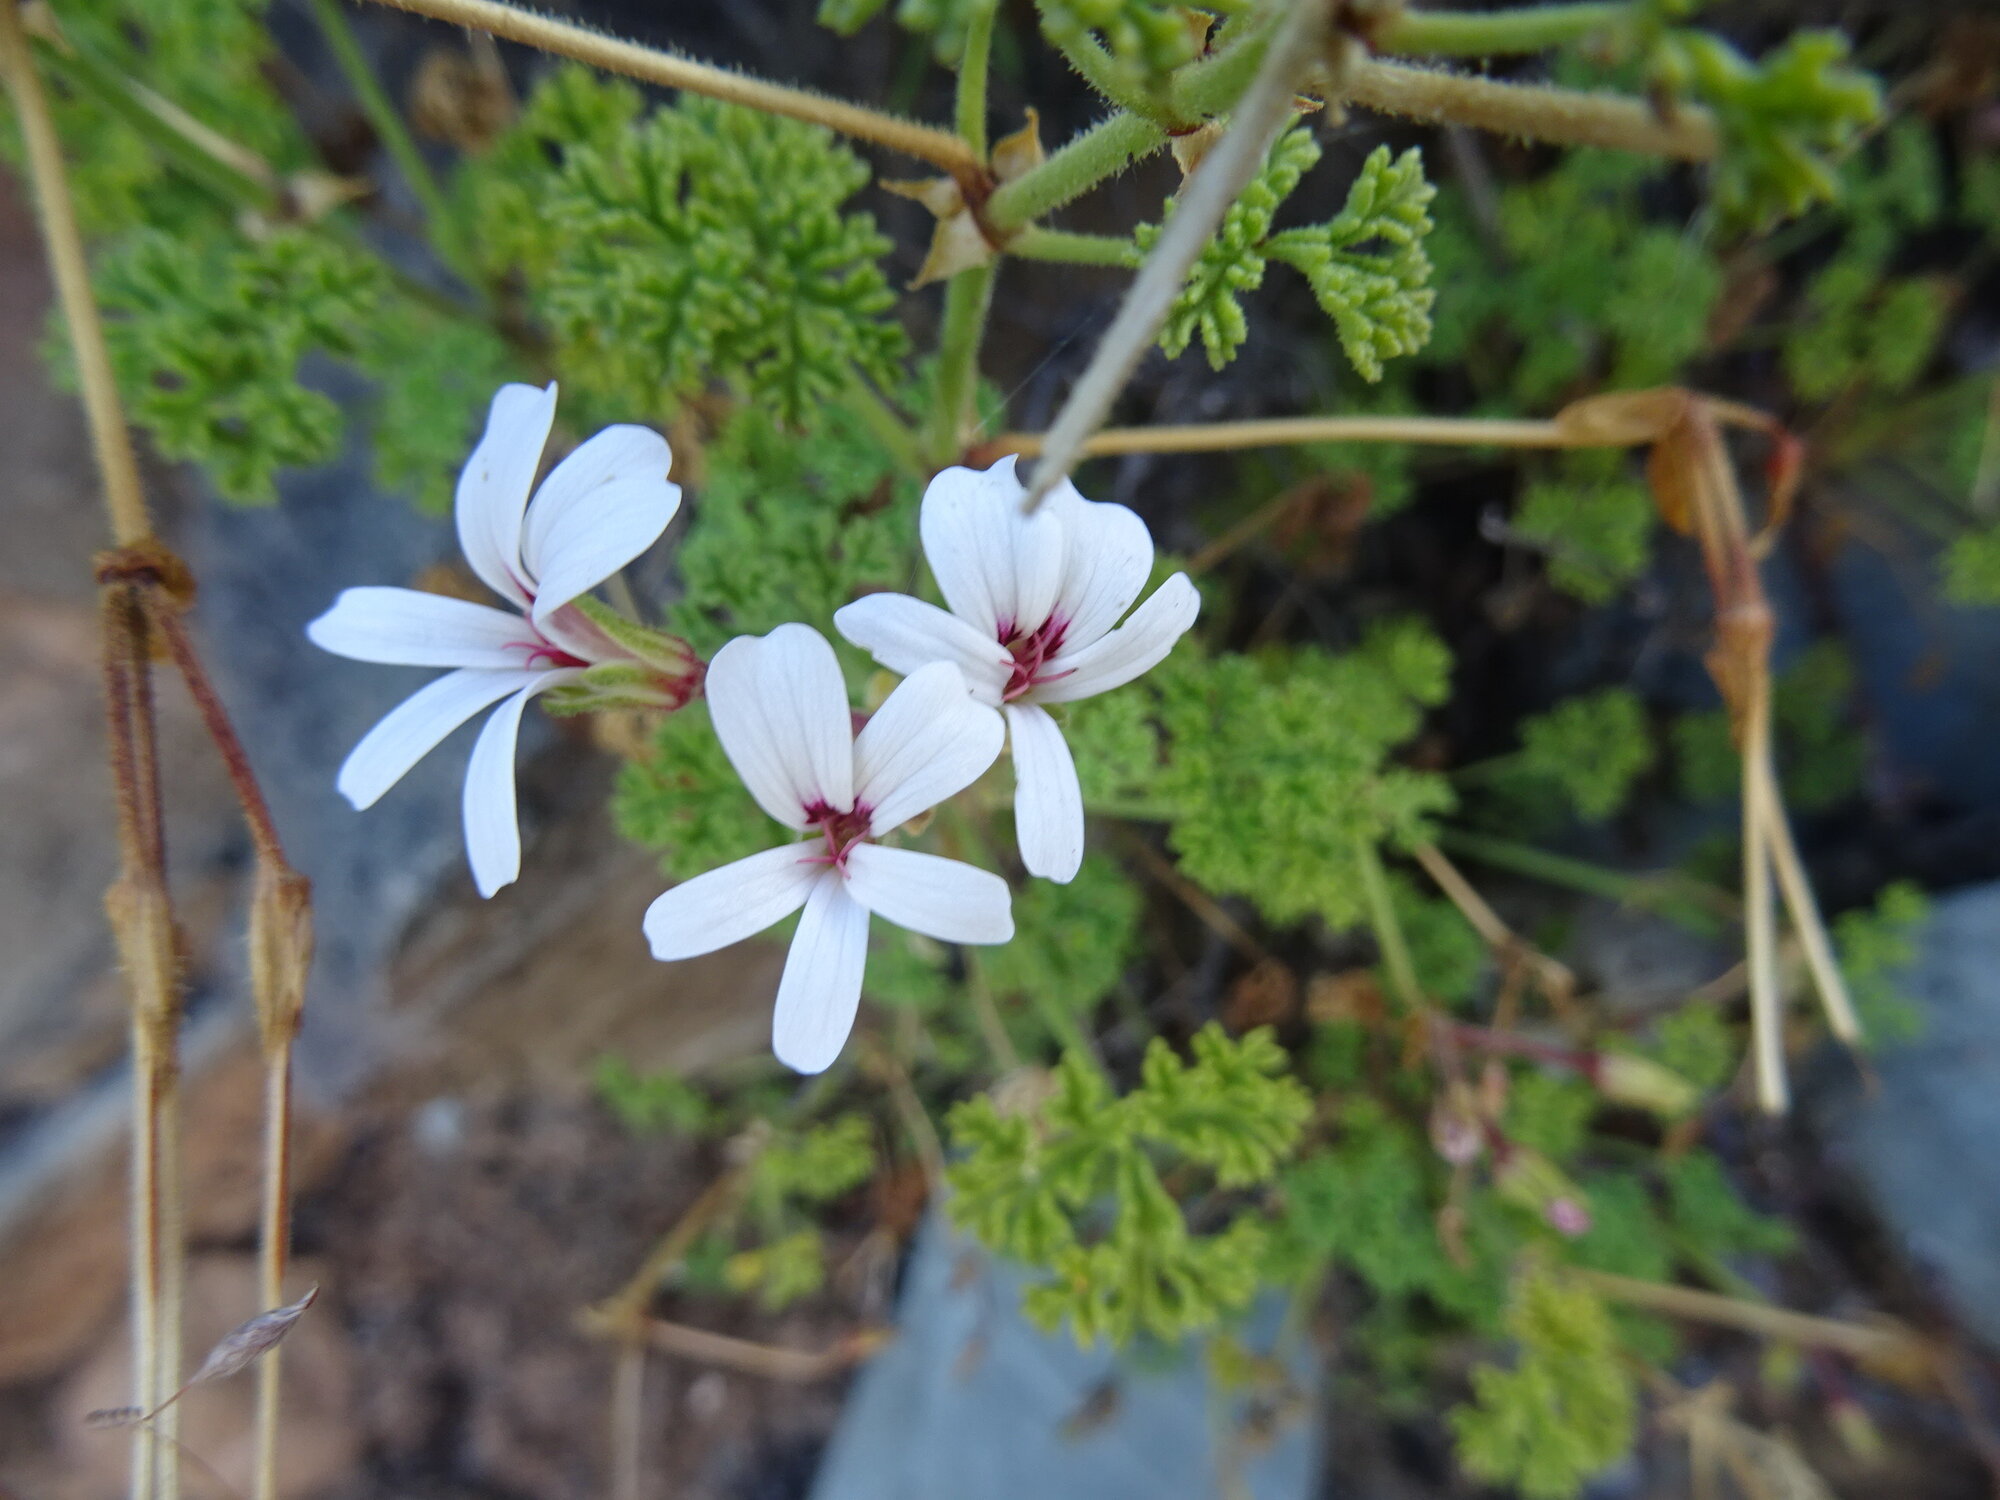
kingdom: Plantae
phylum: Tracheophyta
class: Magnoliopsida
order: Geraniales
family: Geraniaceae
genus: Pelargonium
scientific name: Pelargonium trifidum
